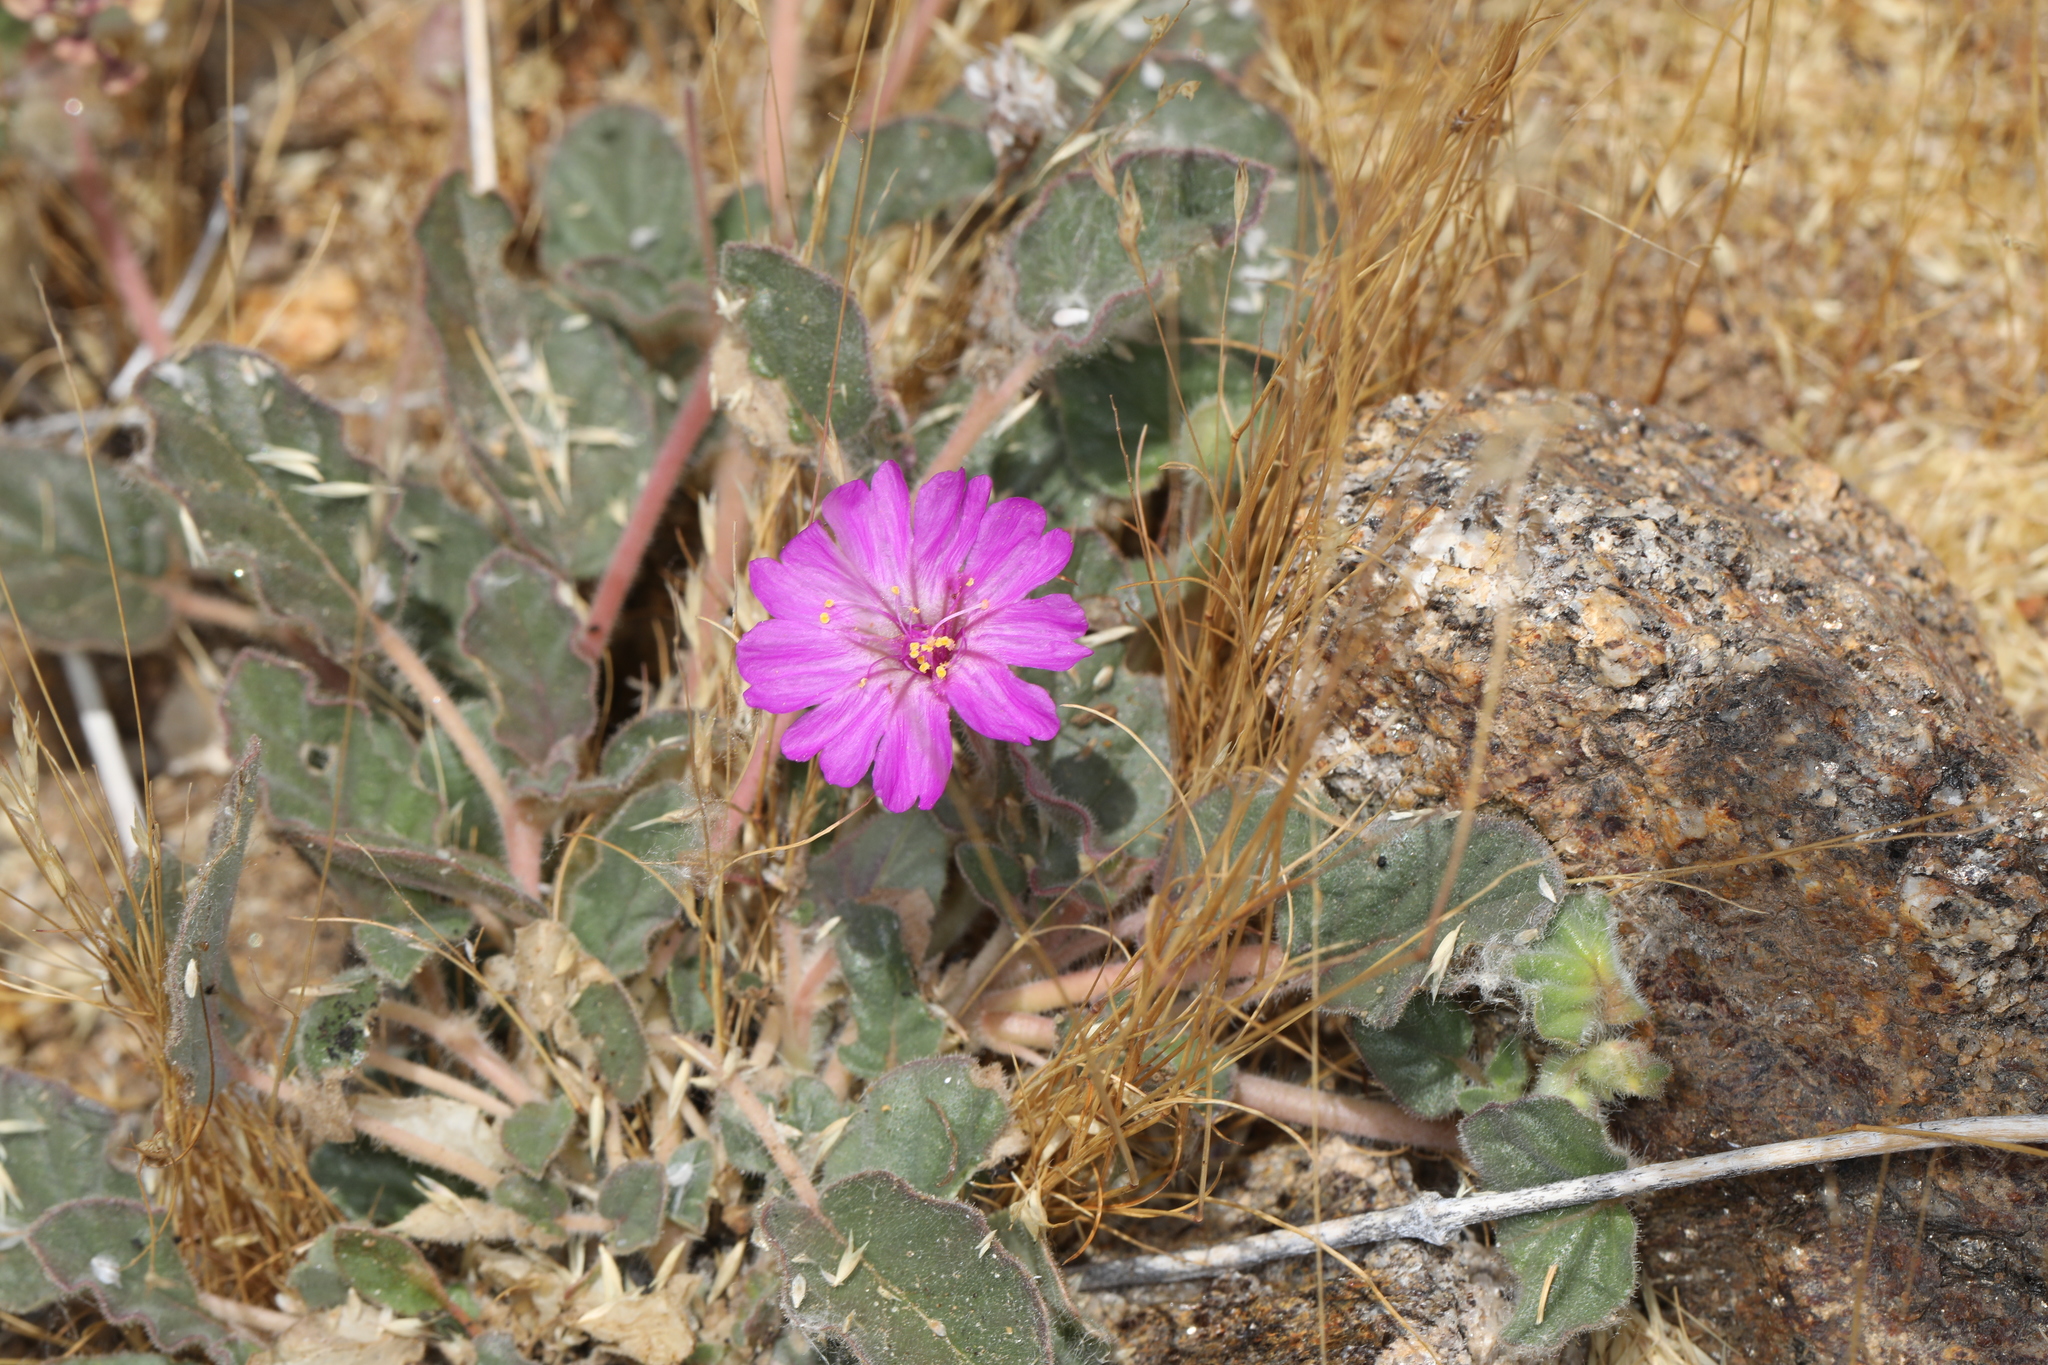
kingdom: Plantae
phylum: Tracheophyta
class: Magnoliopsida
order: Caryophyllales
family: Nyctaginaceae
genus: Allionia
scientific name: Allionia incarnata
